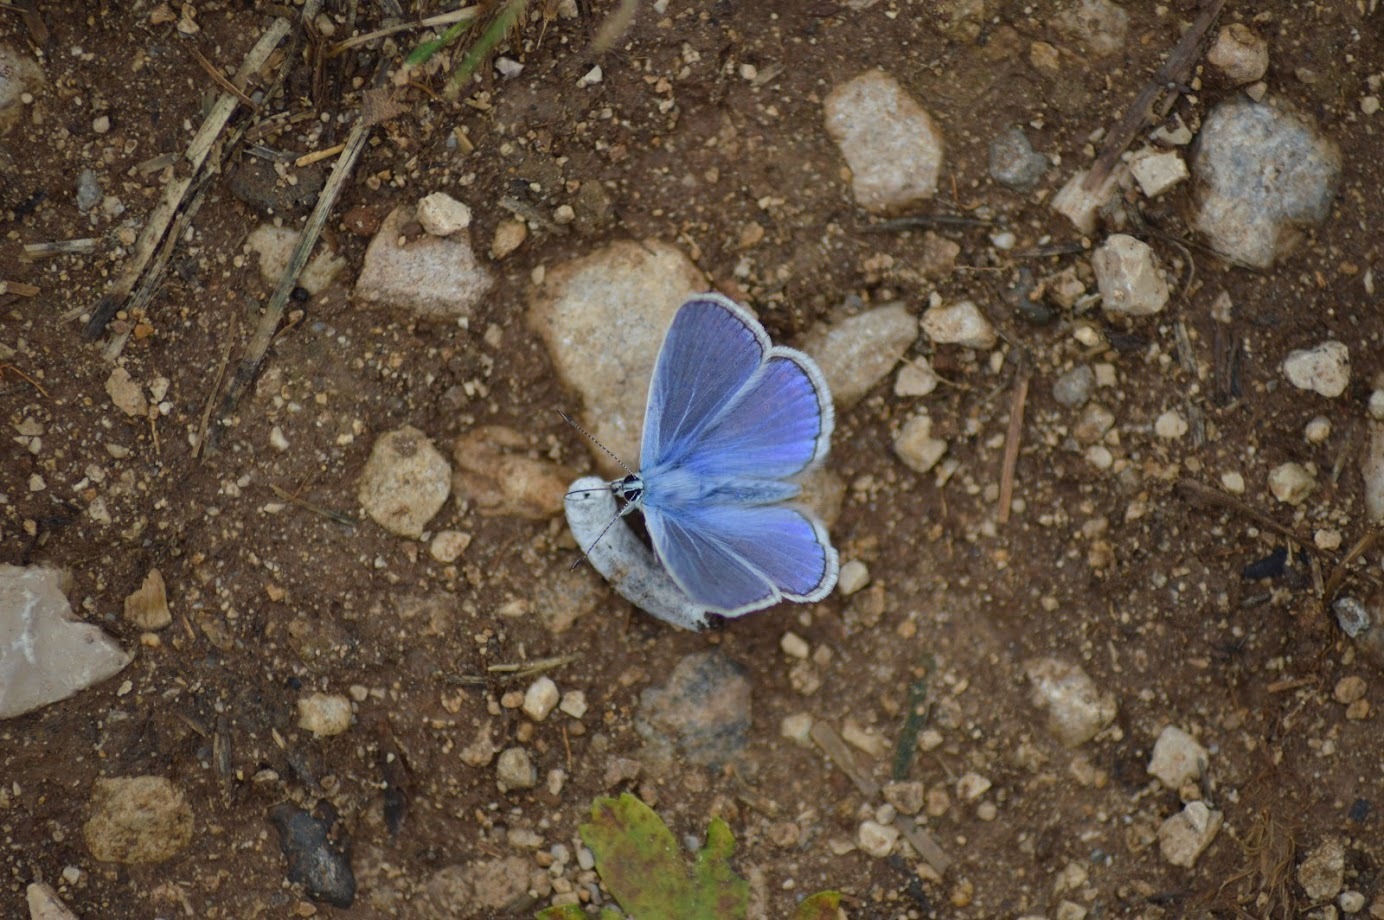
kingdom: Animalia
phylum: Arthropoda
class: Insecta
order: Lepidoptera
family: Lycaenidae
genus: Polyommatus
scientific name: Polyommatus icarus
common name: Common blue
